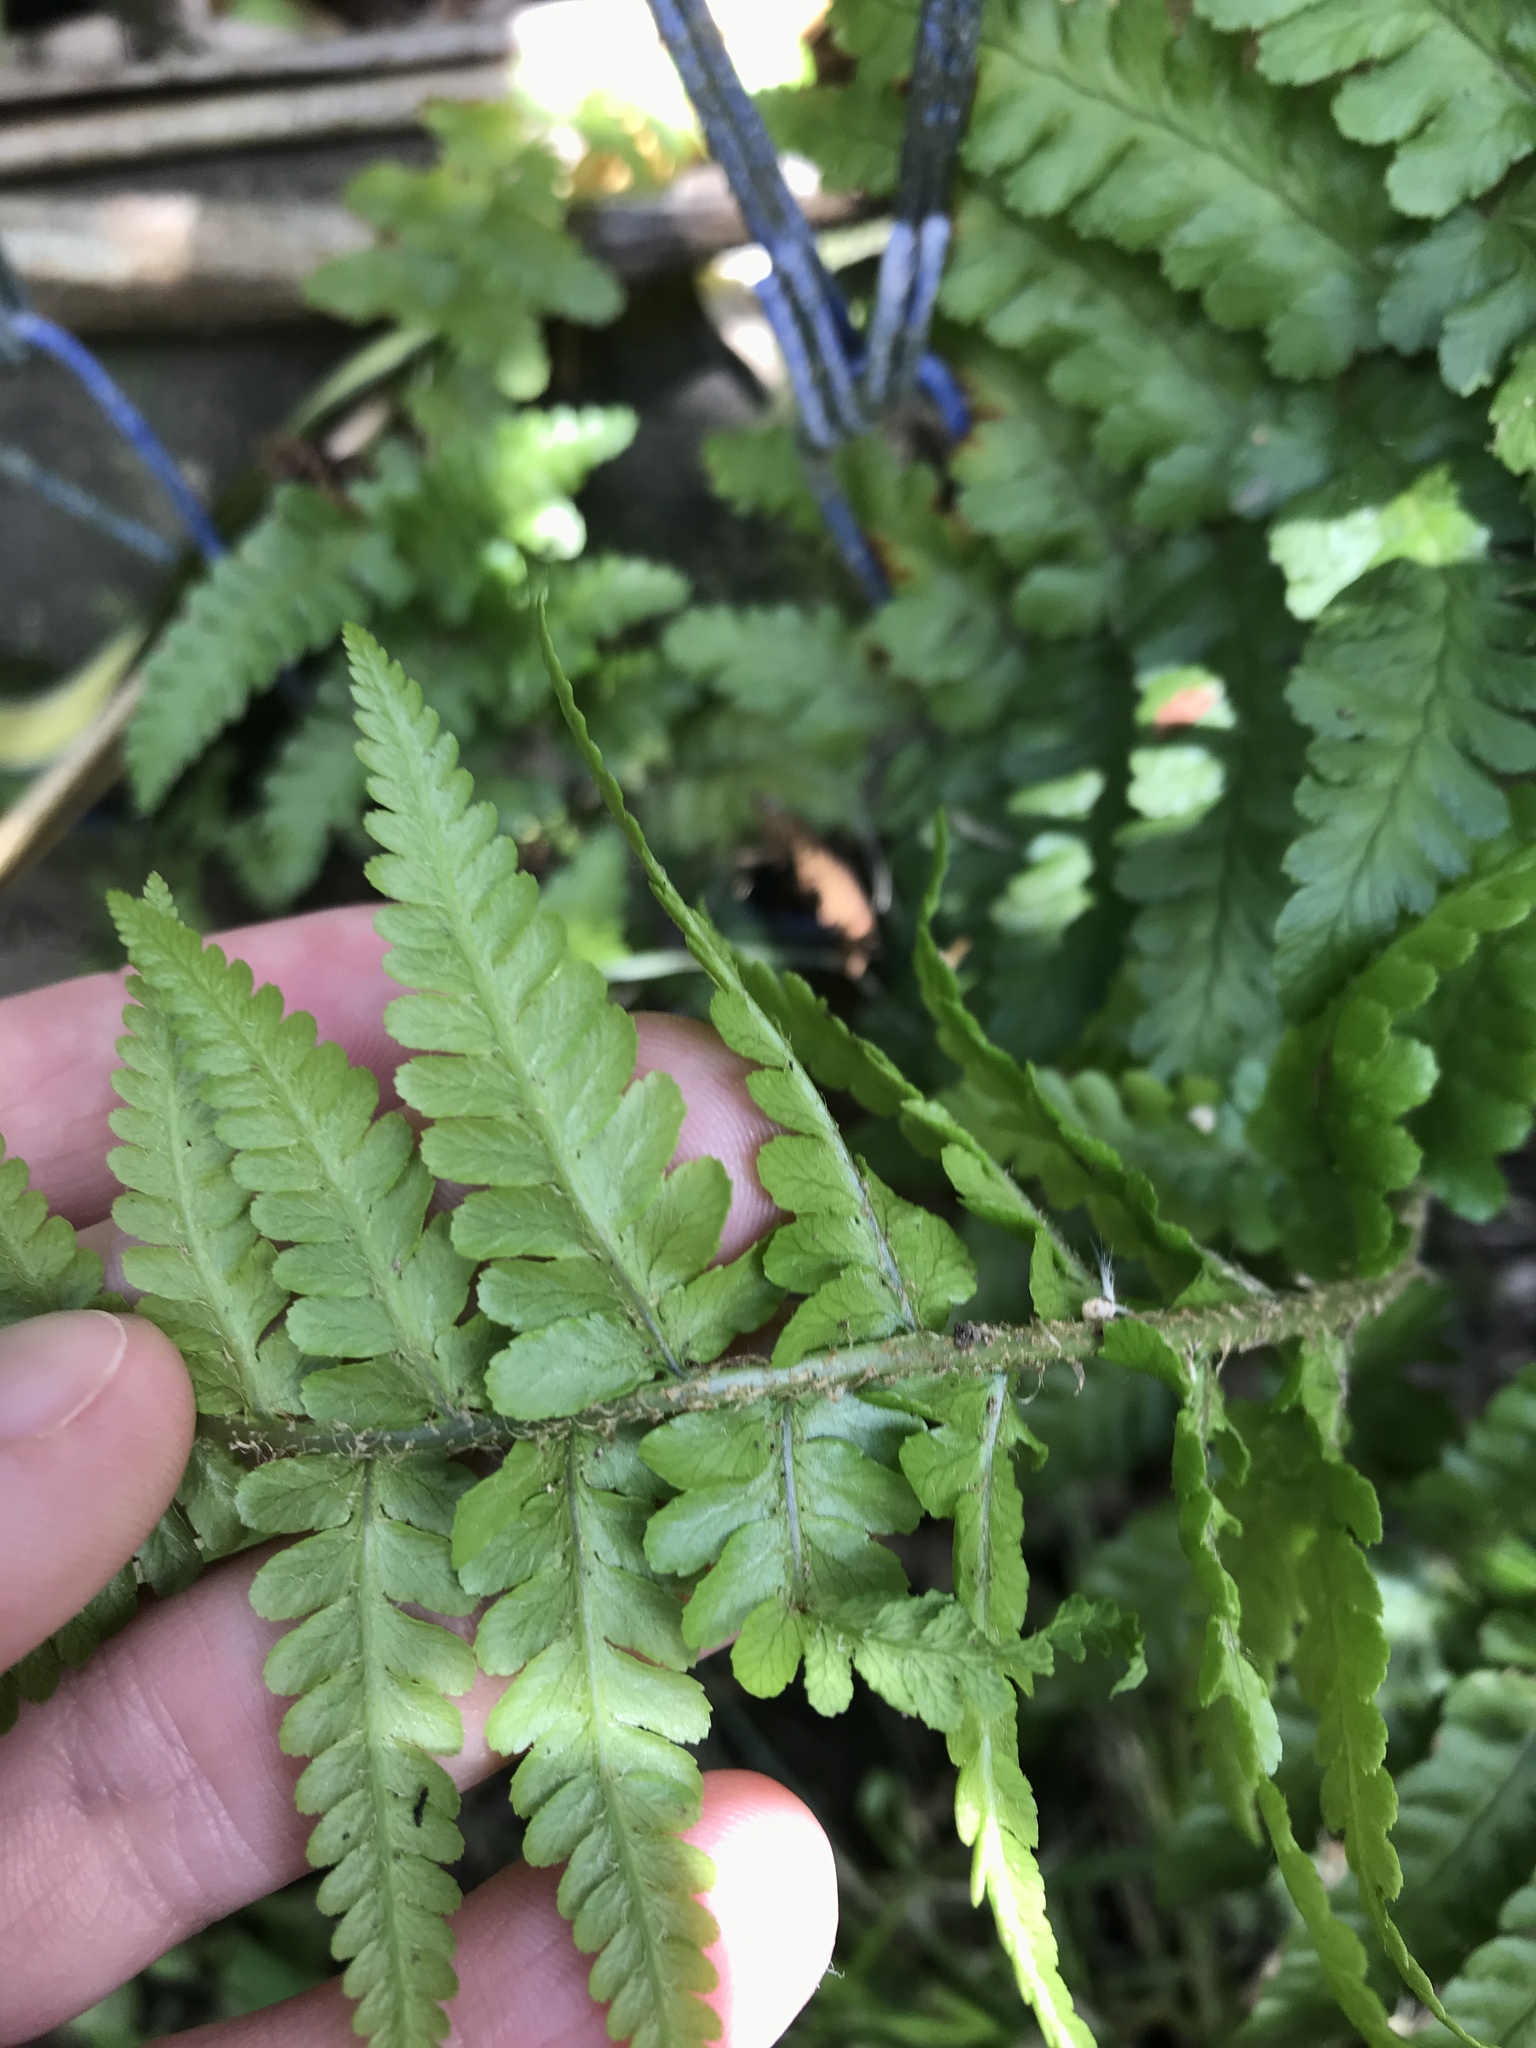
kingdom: Plantae
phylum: Tracheophyta
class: Polypodiopsida
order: Polypodiales
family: Dryopteridaceae
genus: Dryopteris
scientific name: Dryopteris filix-mas
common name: Male fern
